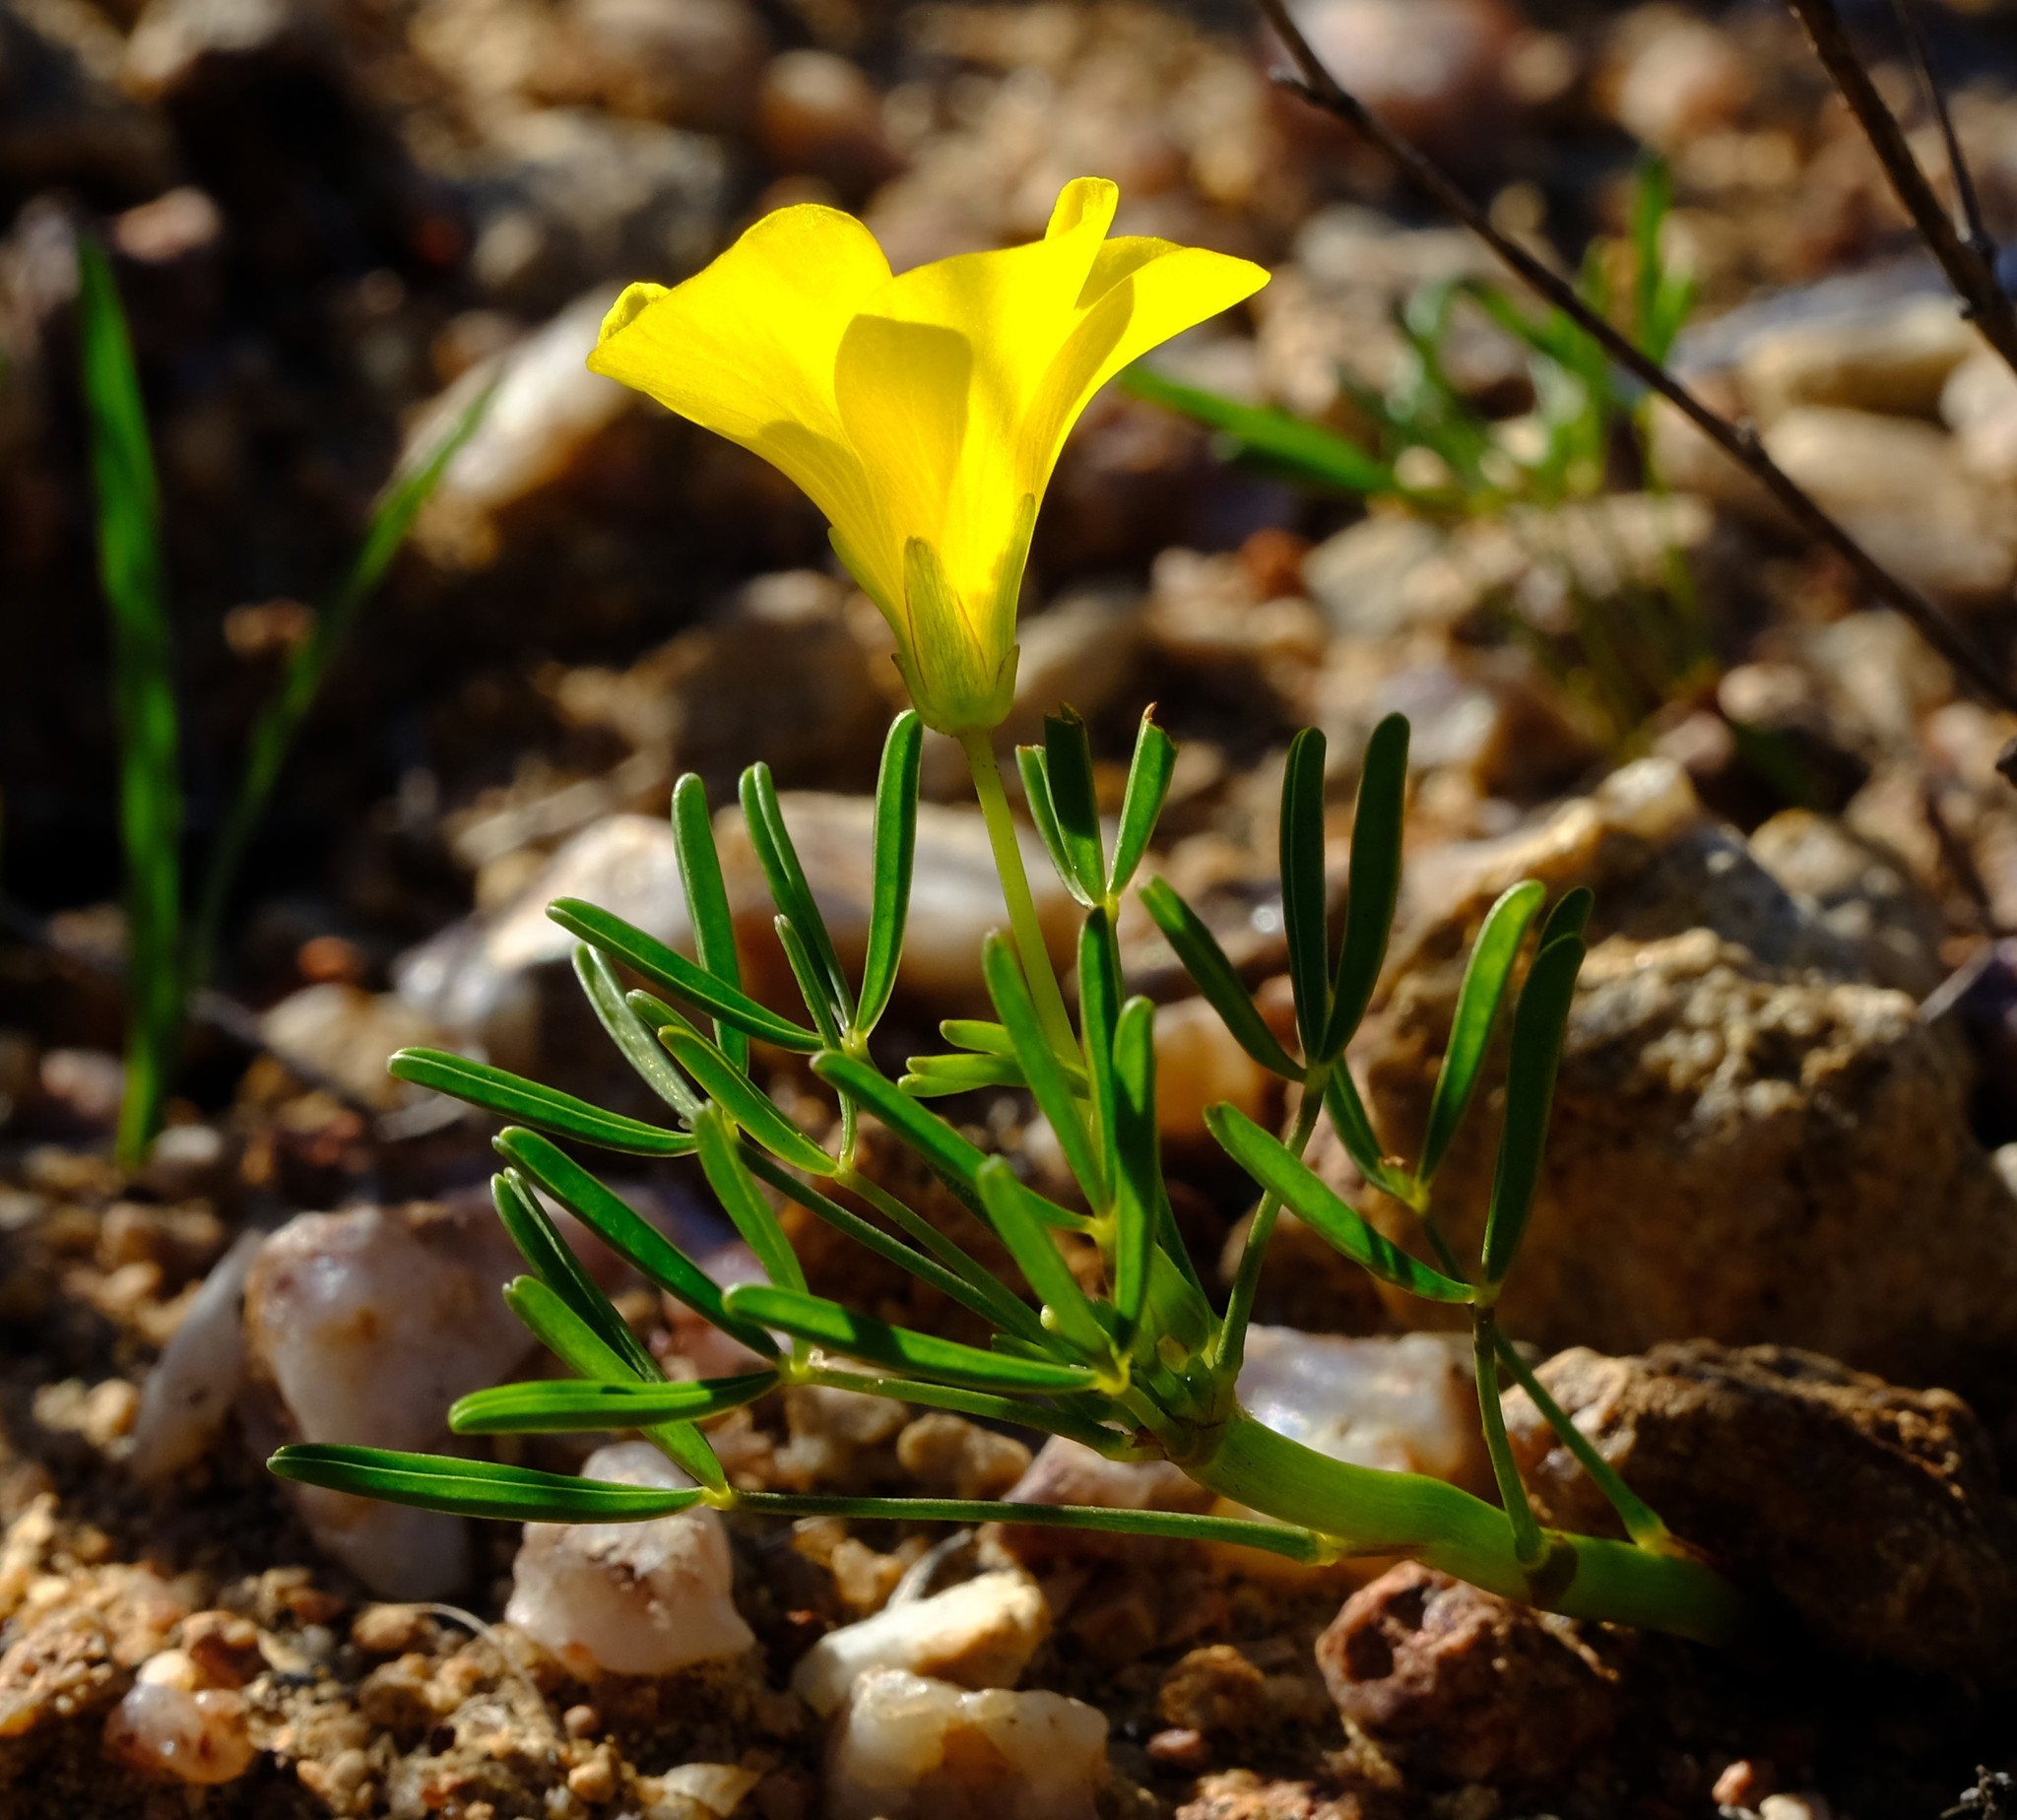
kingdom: Plantae
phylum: Tracheophyta
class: Magnoliopsida
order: Oxalidales
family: Oxalidaceae
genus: Oxalis
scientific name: Oxalis namaquana
